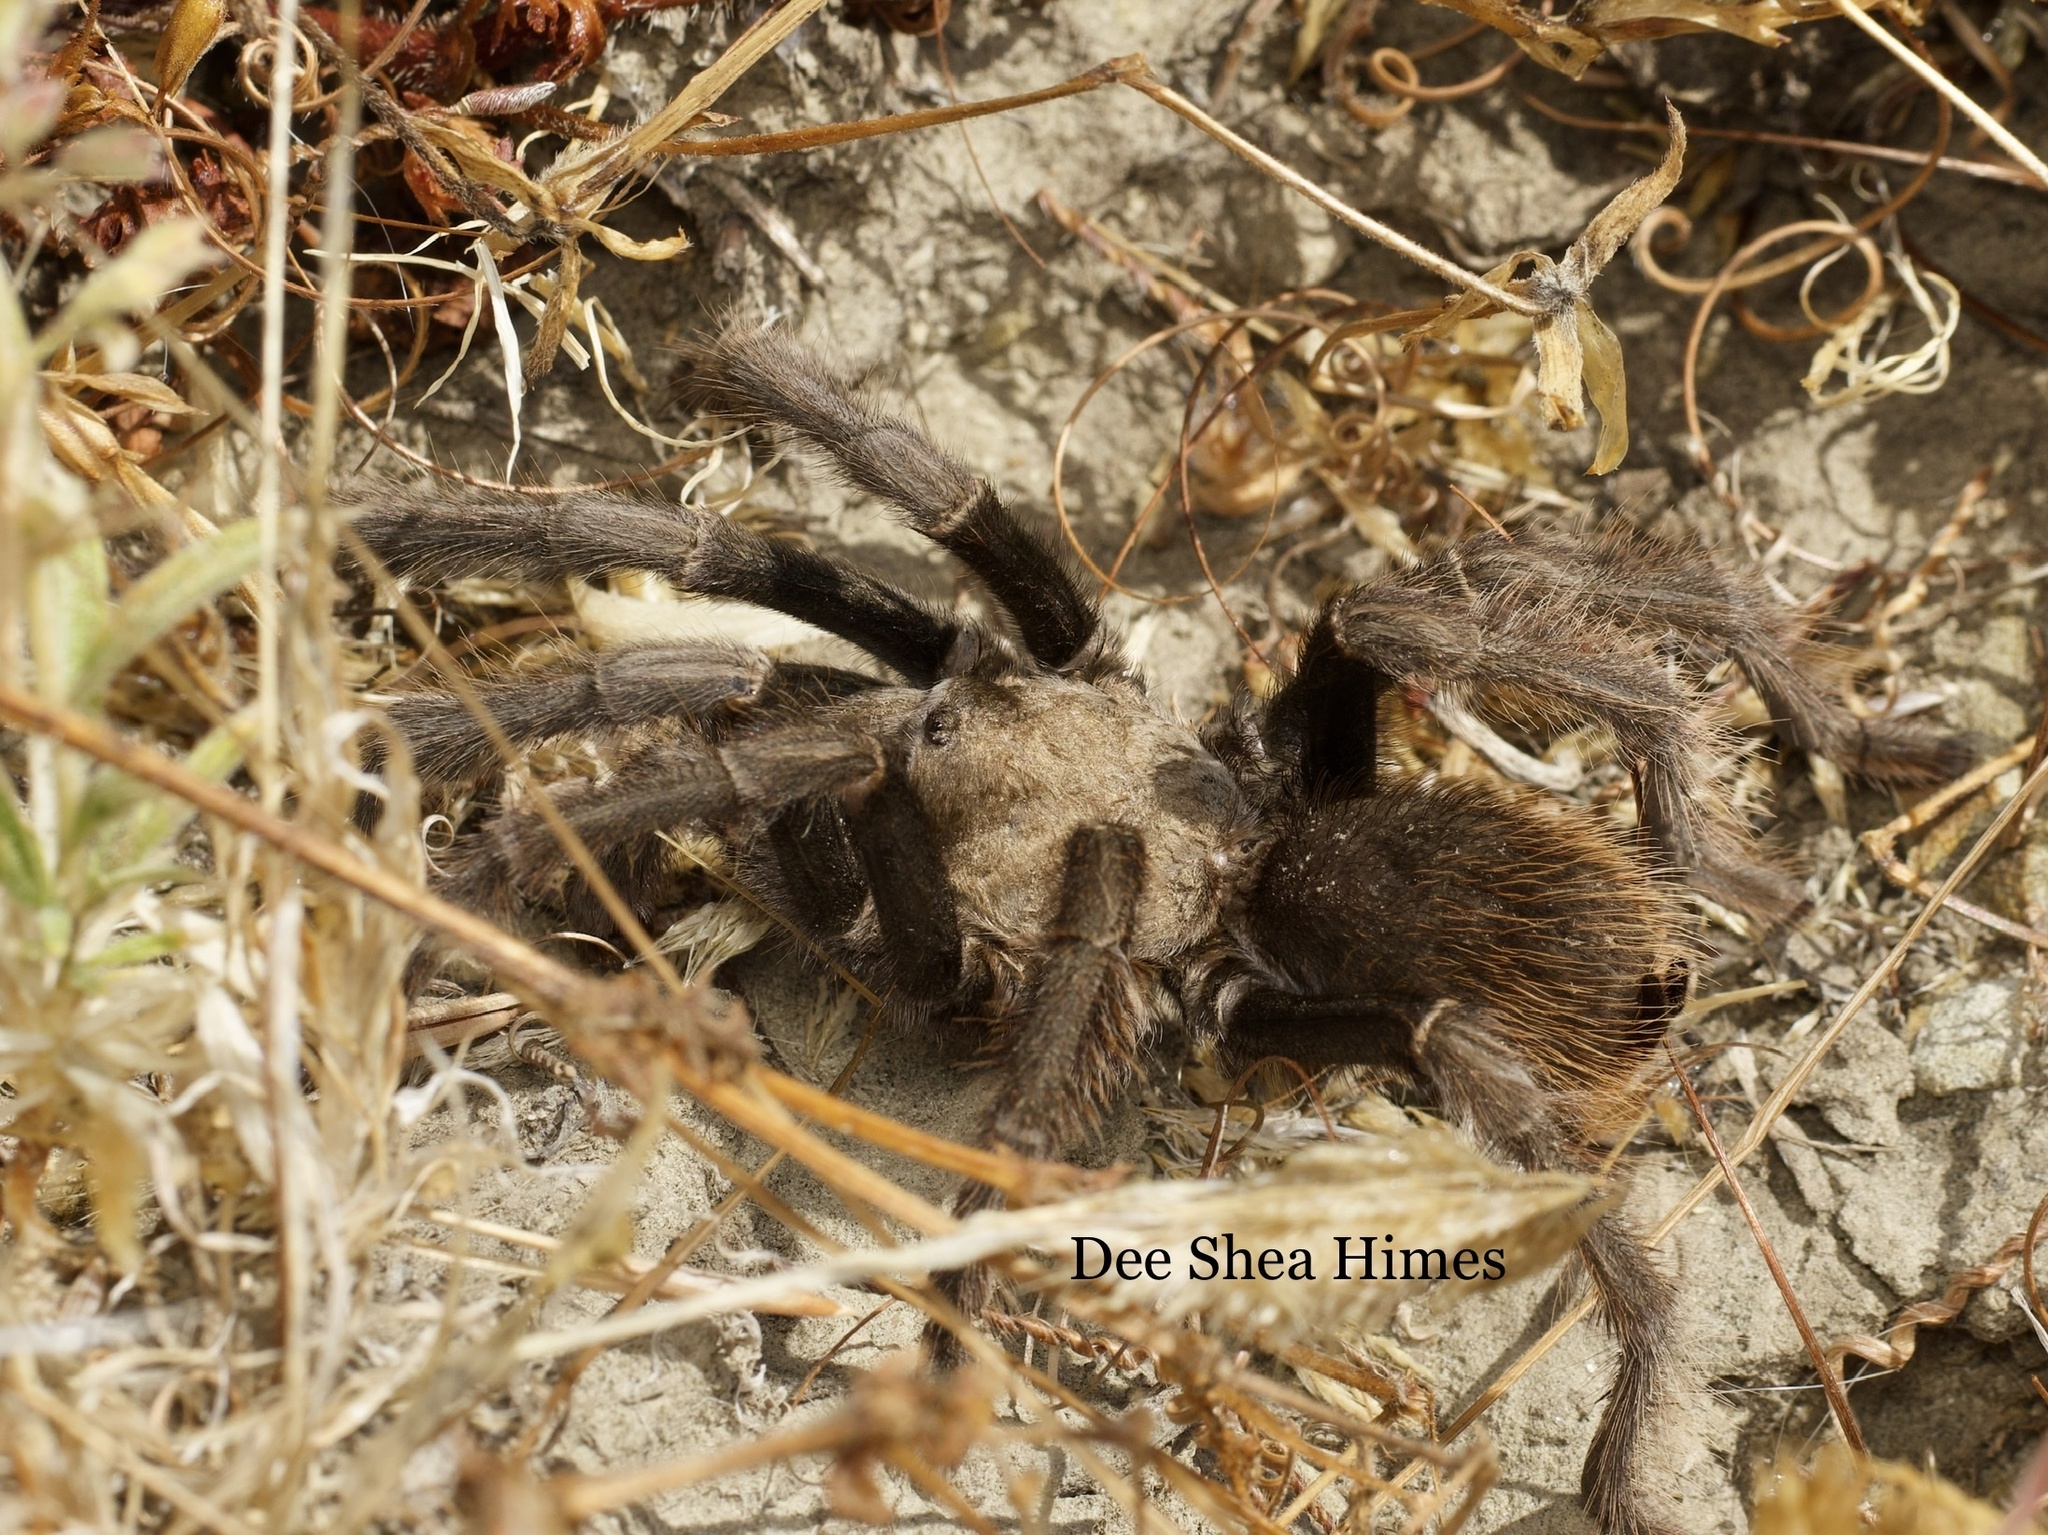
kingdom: Animalia
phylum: Arthropoda
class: Arachnida
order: Araneae
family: Theraphosidae
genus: Aphonopelma
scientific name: Aphonopelma iodius
